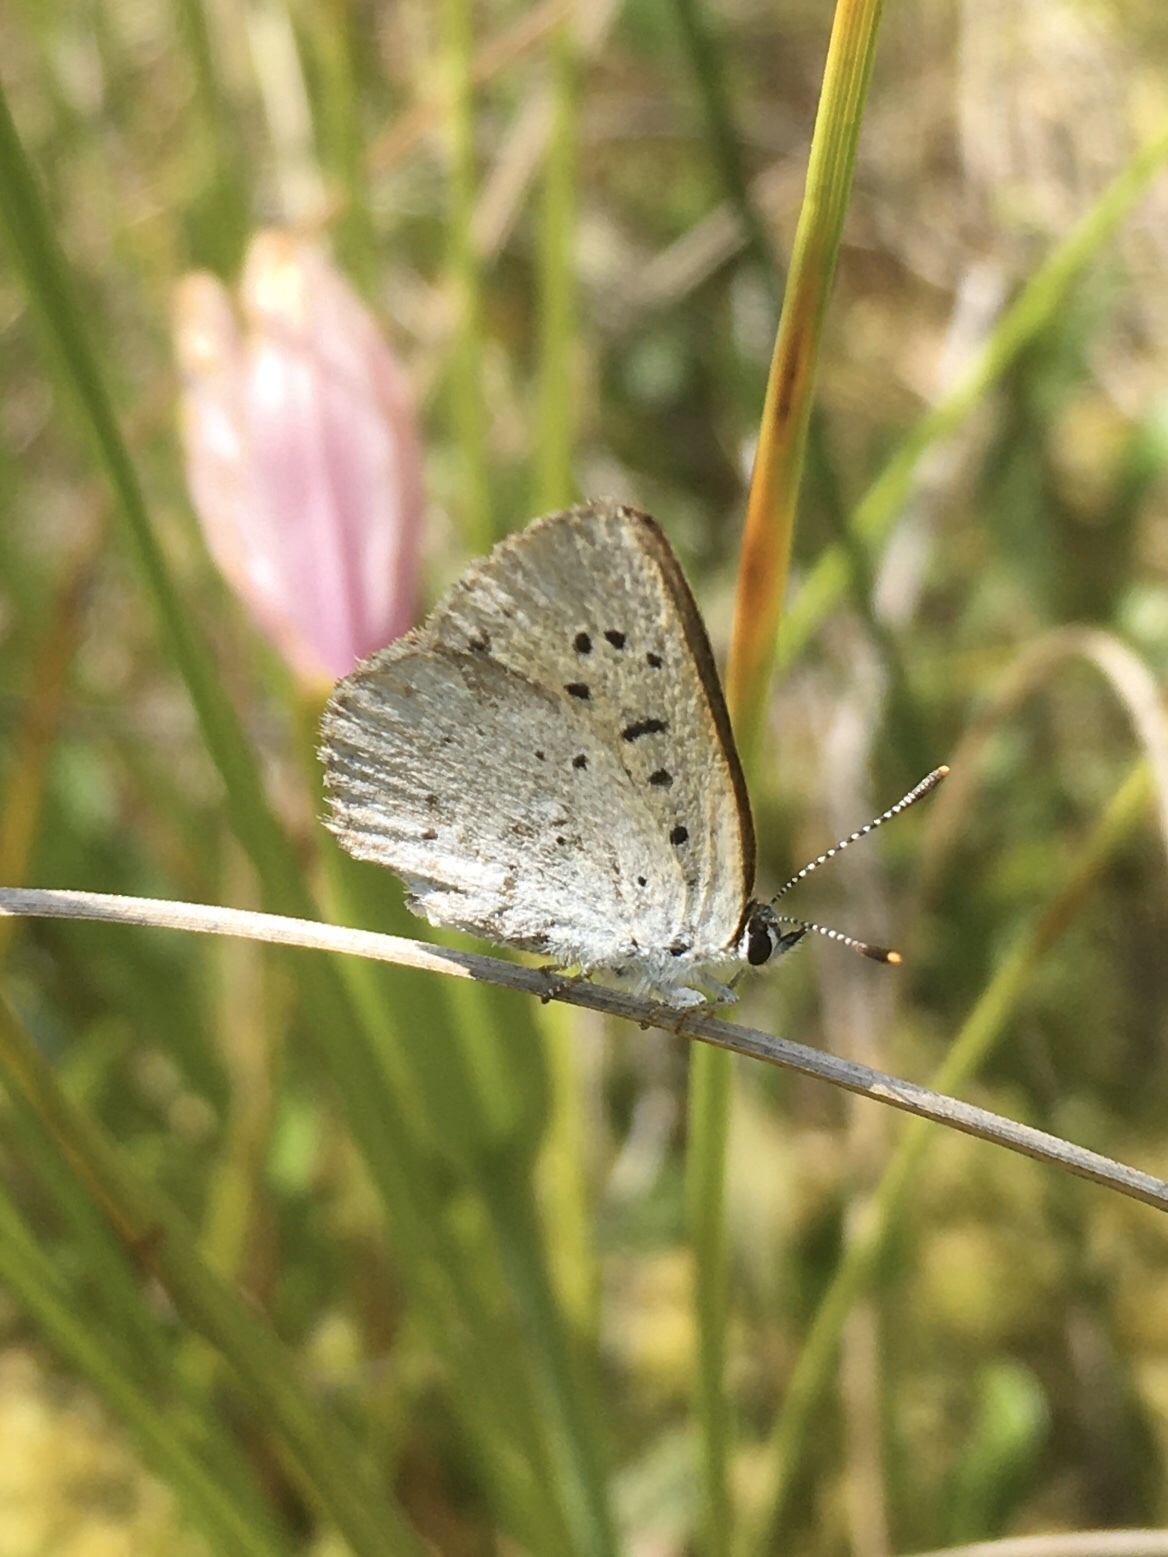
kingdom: Animalia
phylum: Arthropoda
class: Insecta
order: Lepidoptera
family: Lycaenidae
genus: Tharsalea
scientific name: Tharsalea epixanthe
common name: Bog copper
